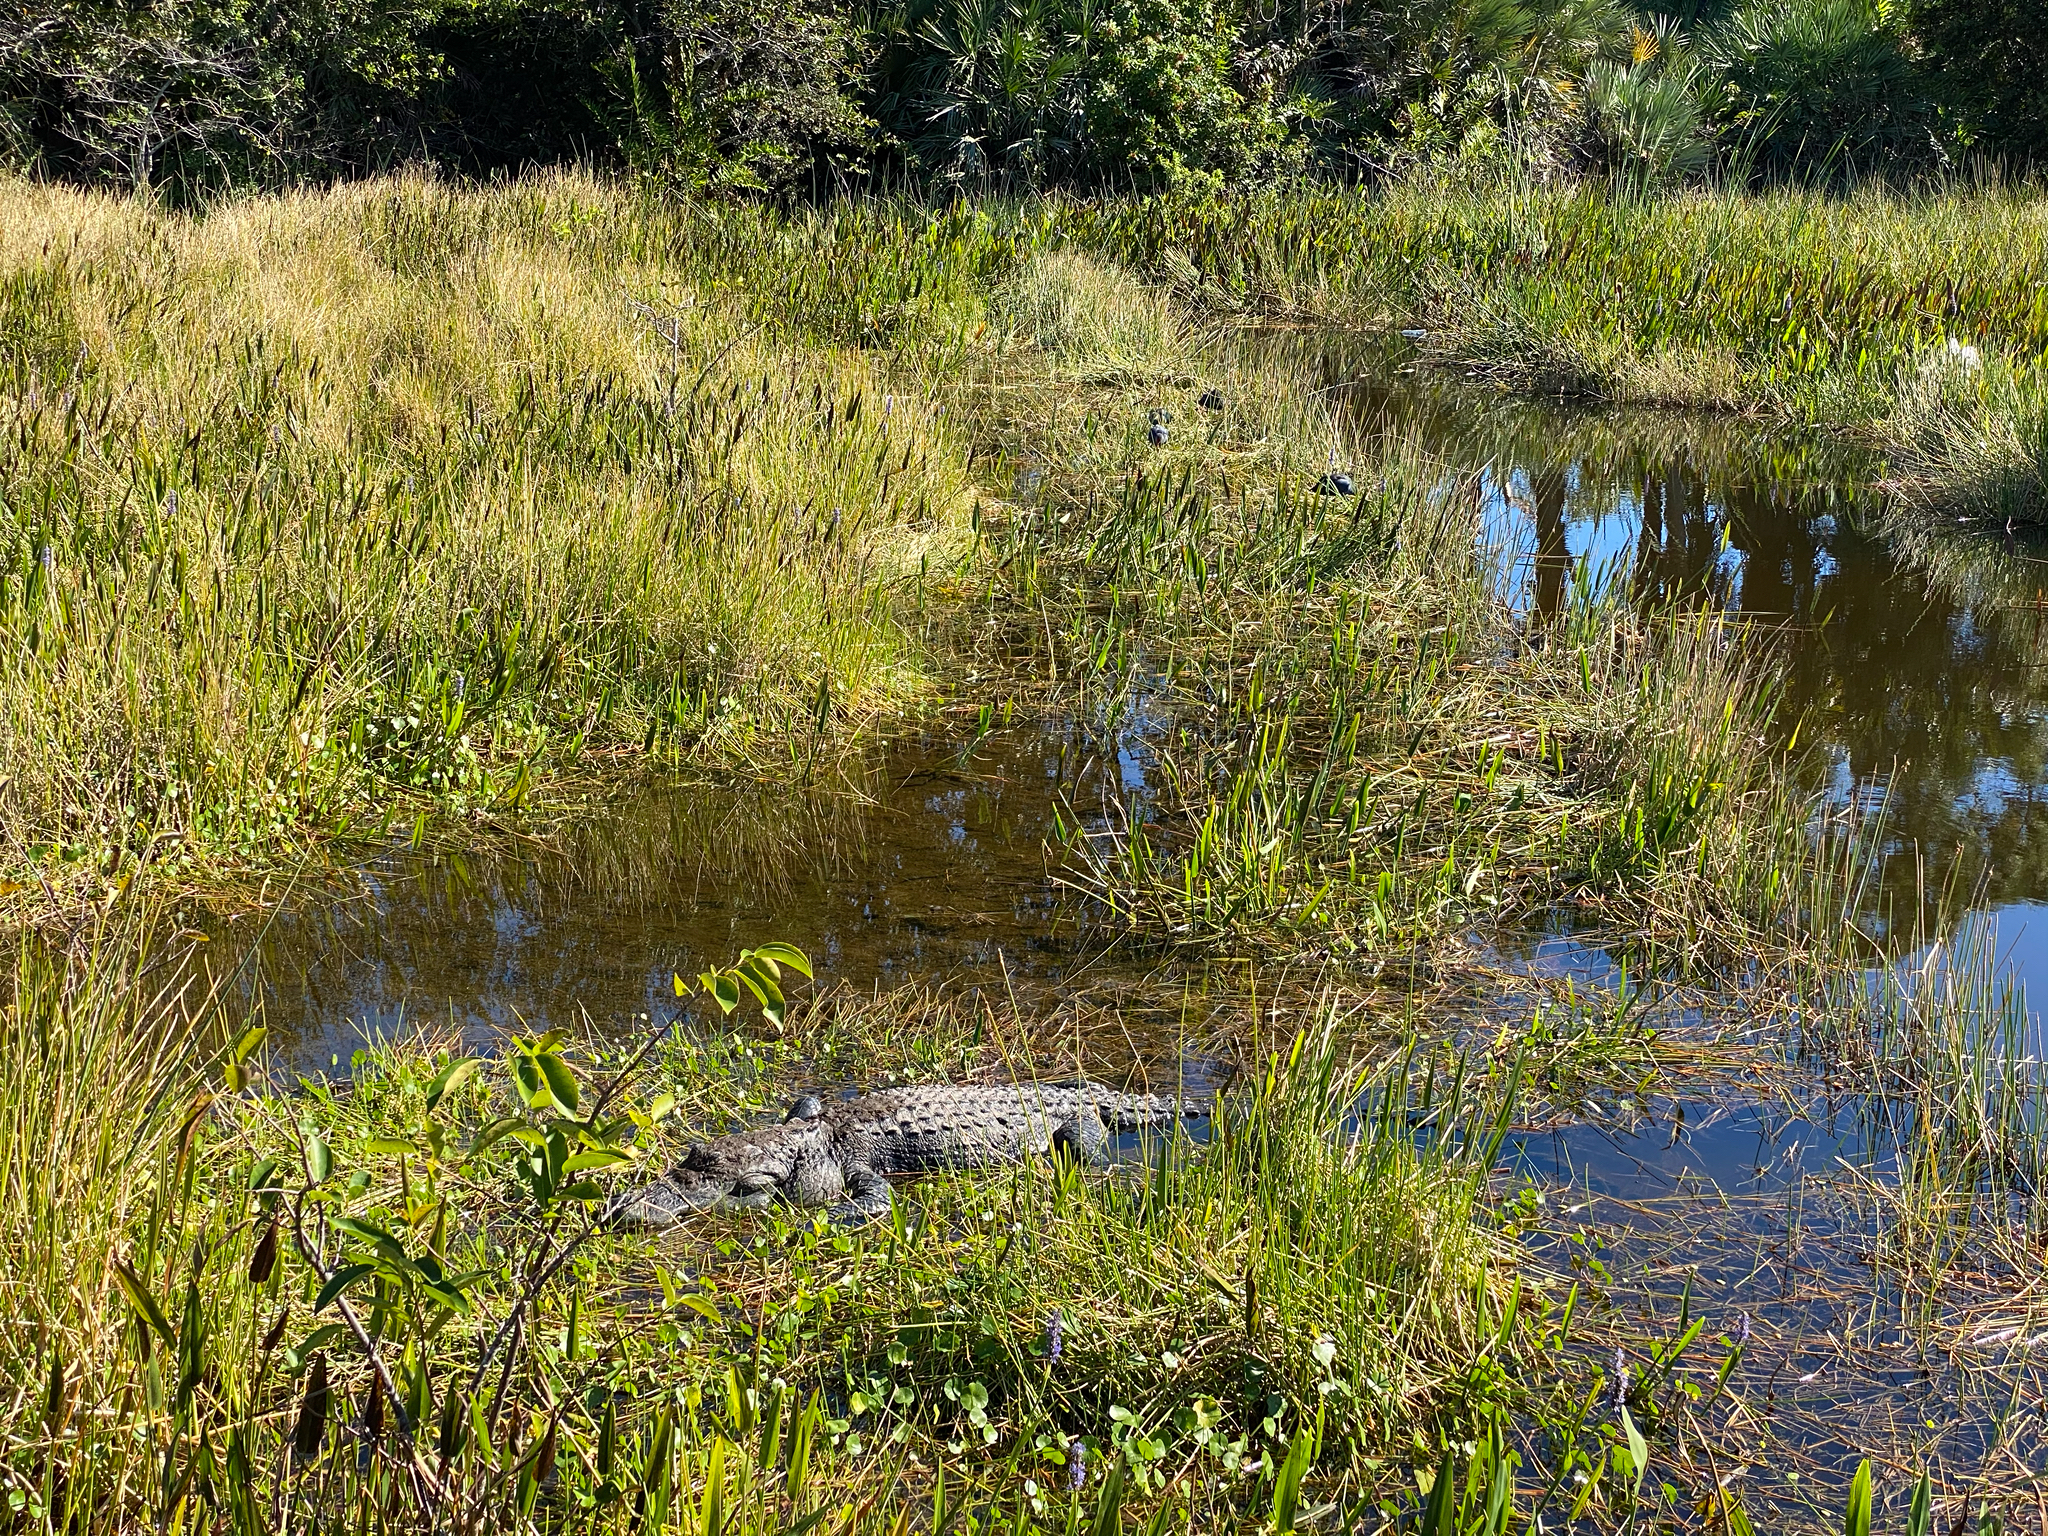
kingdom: Animalia
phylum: Chordata
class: Crocodylia
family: Alligatoridae
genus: Alligator
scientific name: Alligator mississippiensis
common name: American alligator
